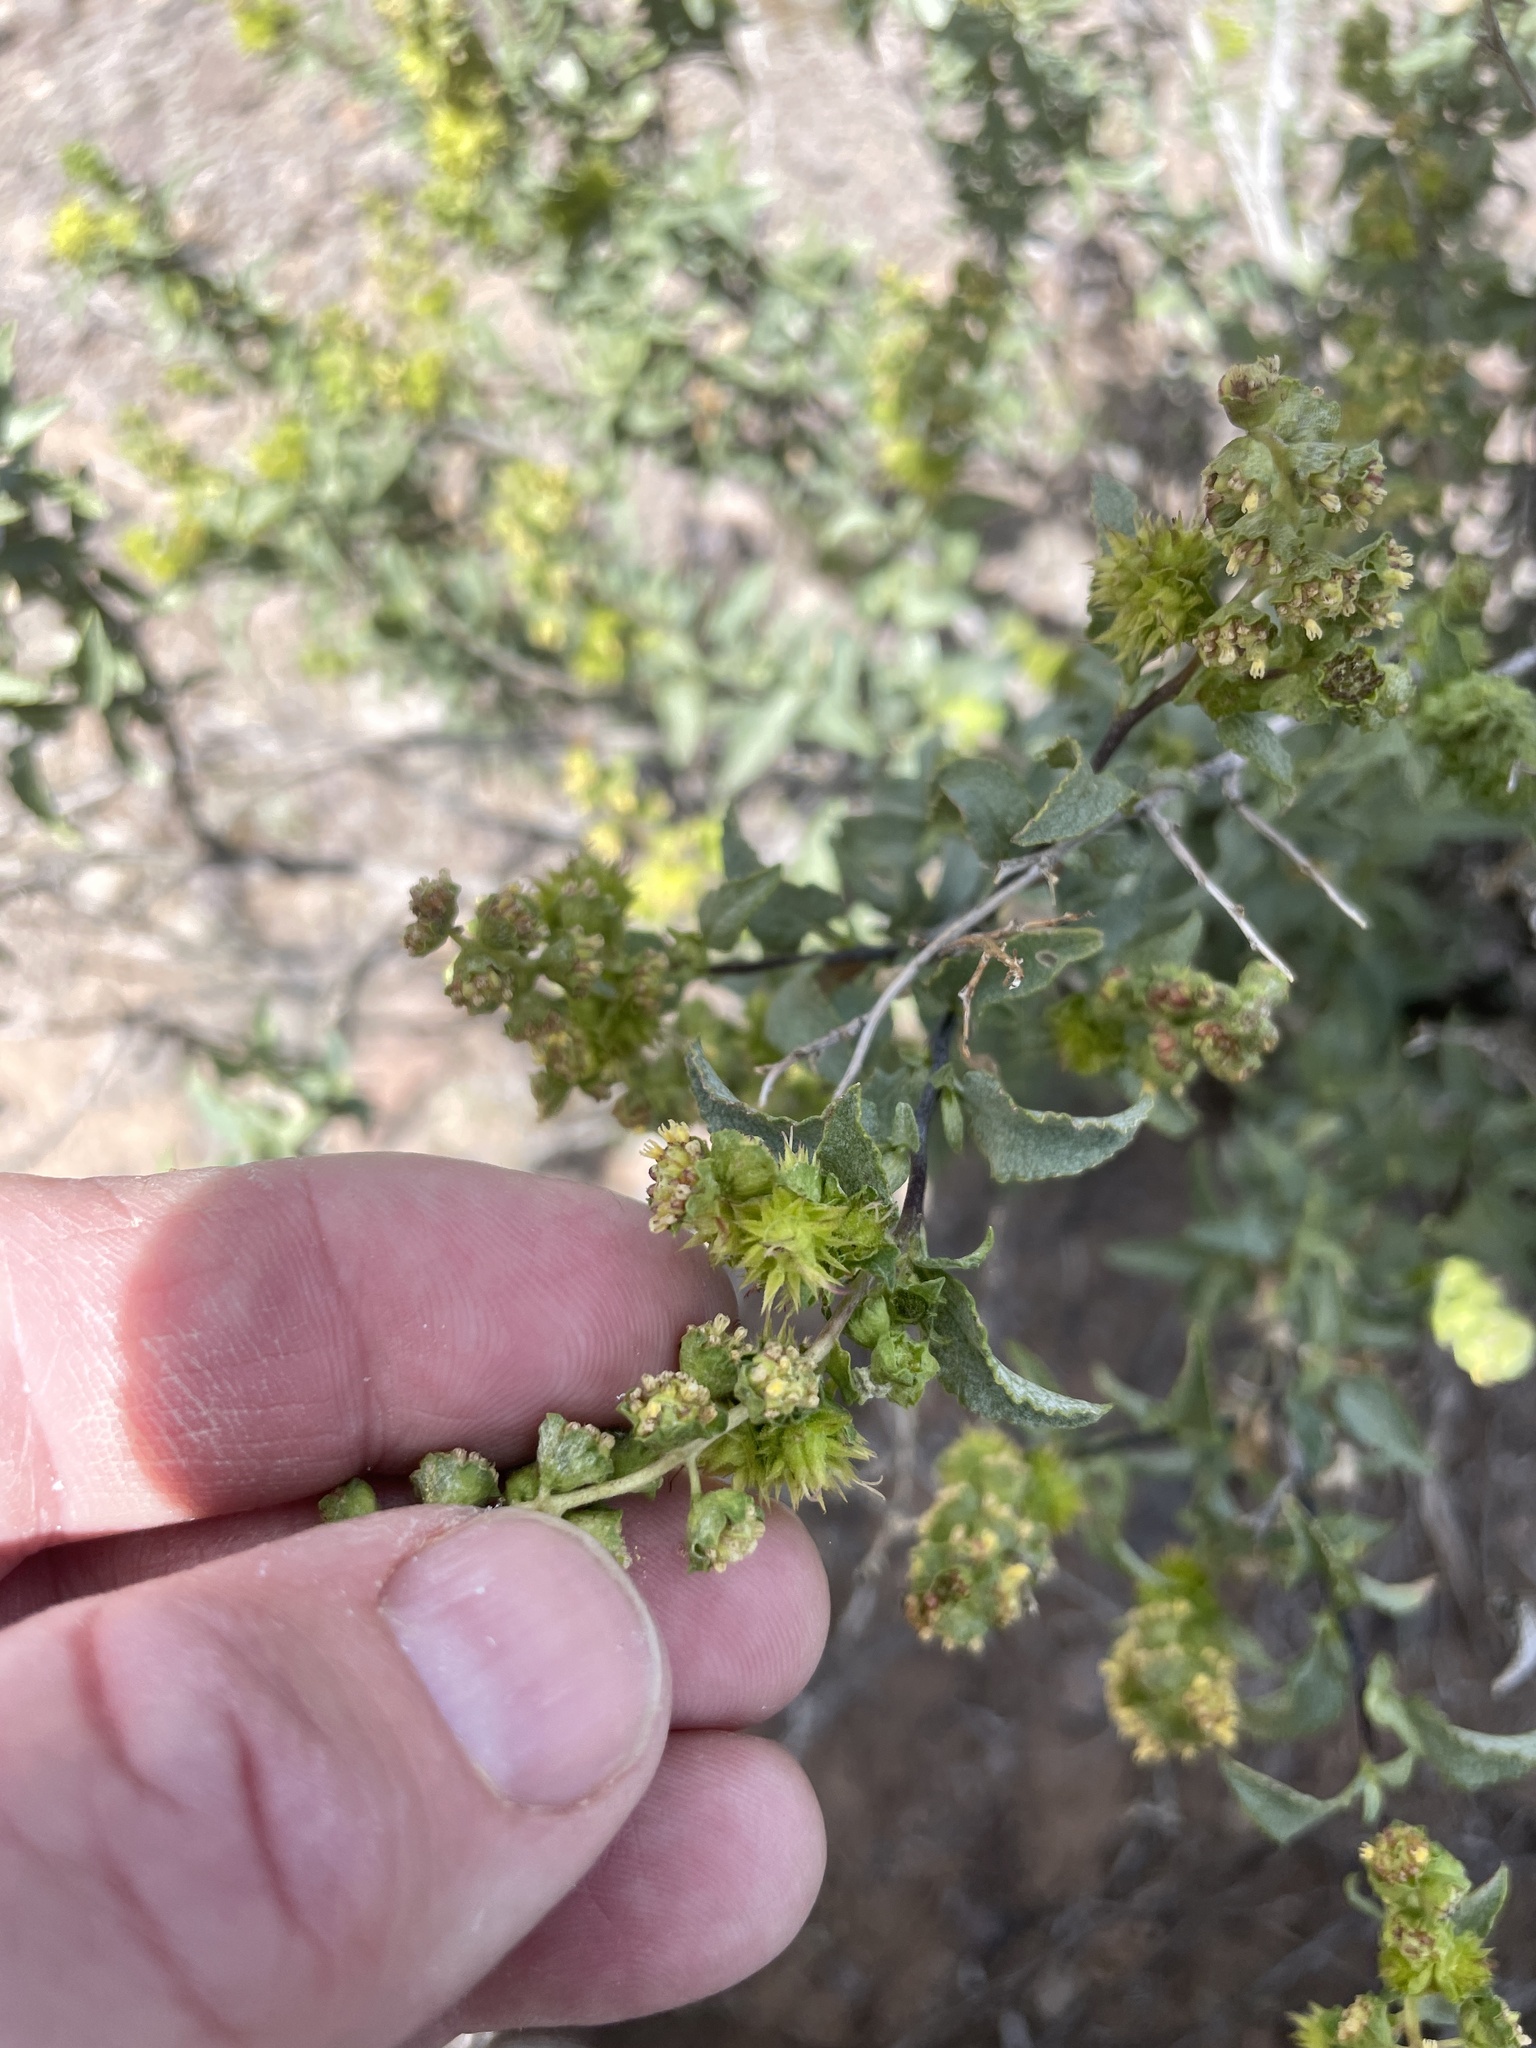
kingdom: Plantae
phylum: Tracheophyta
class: Magnoliopsida
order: Asterales
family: Asteraceae
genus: Ambrosia
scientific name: Ambrosia deltoidea
